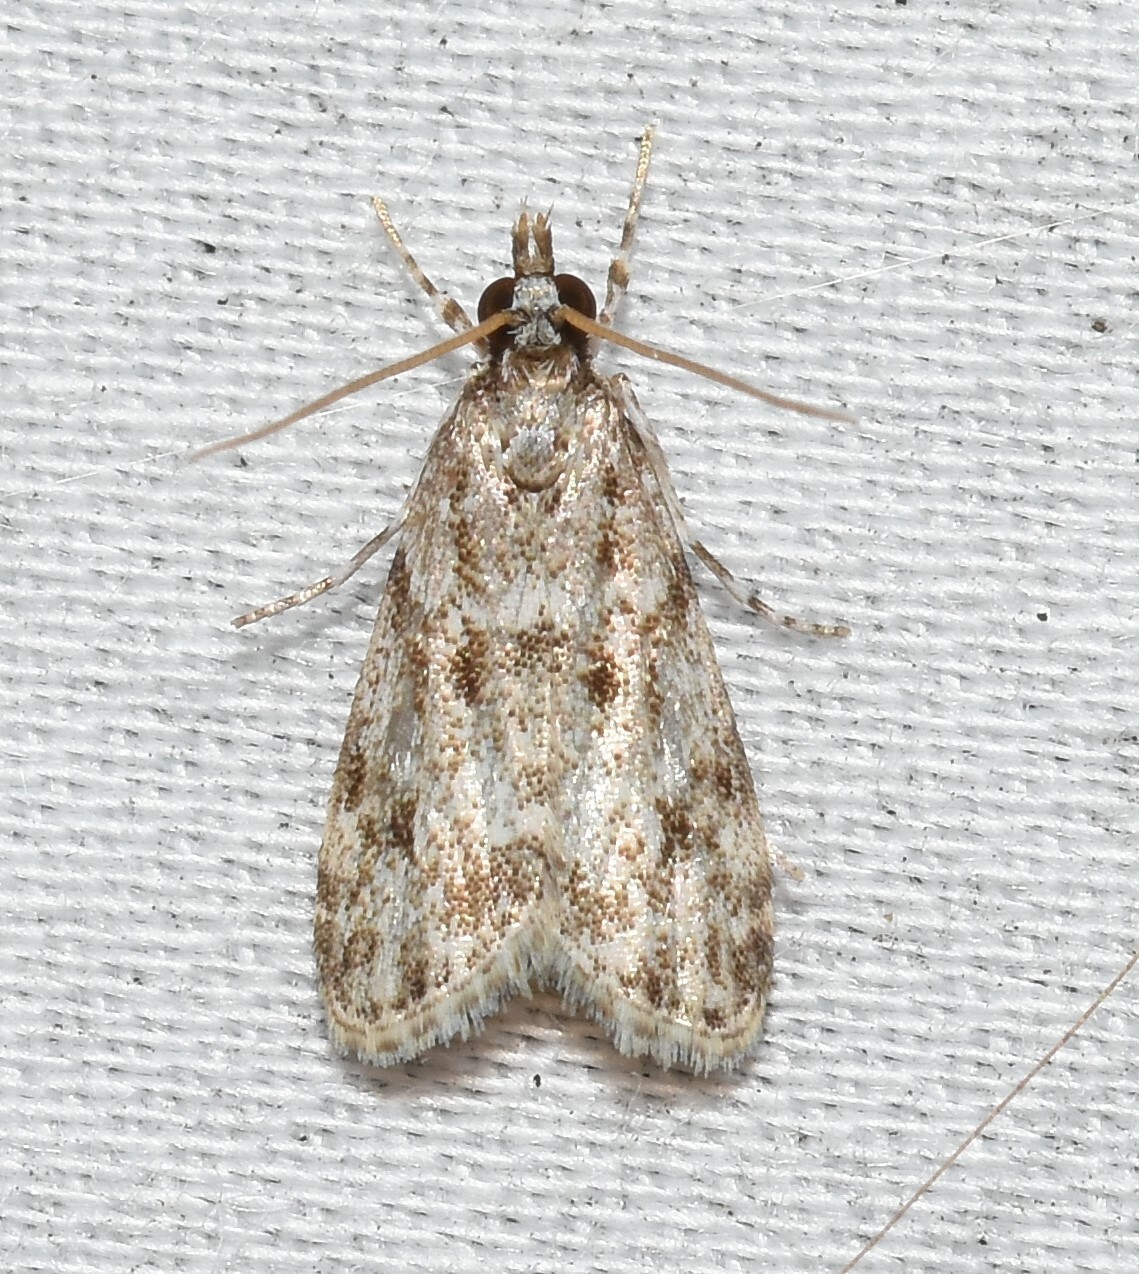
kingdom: Animalia
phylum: Arthropoda
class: Insecta
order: Lepidoptera
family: Crambidae
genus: Eudonia
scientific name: Eudonia heterosalis
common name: Mcdunnough's eudonia
